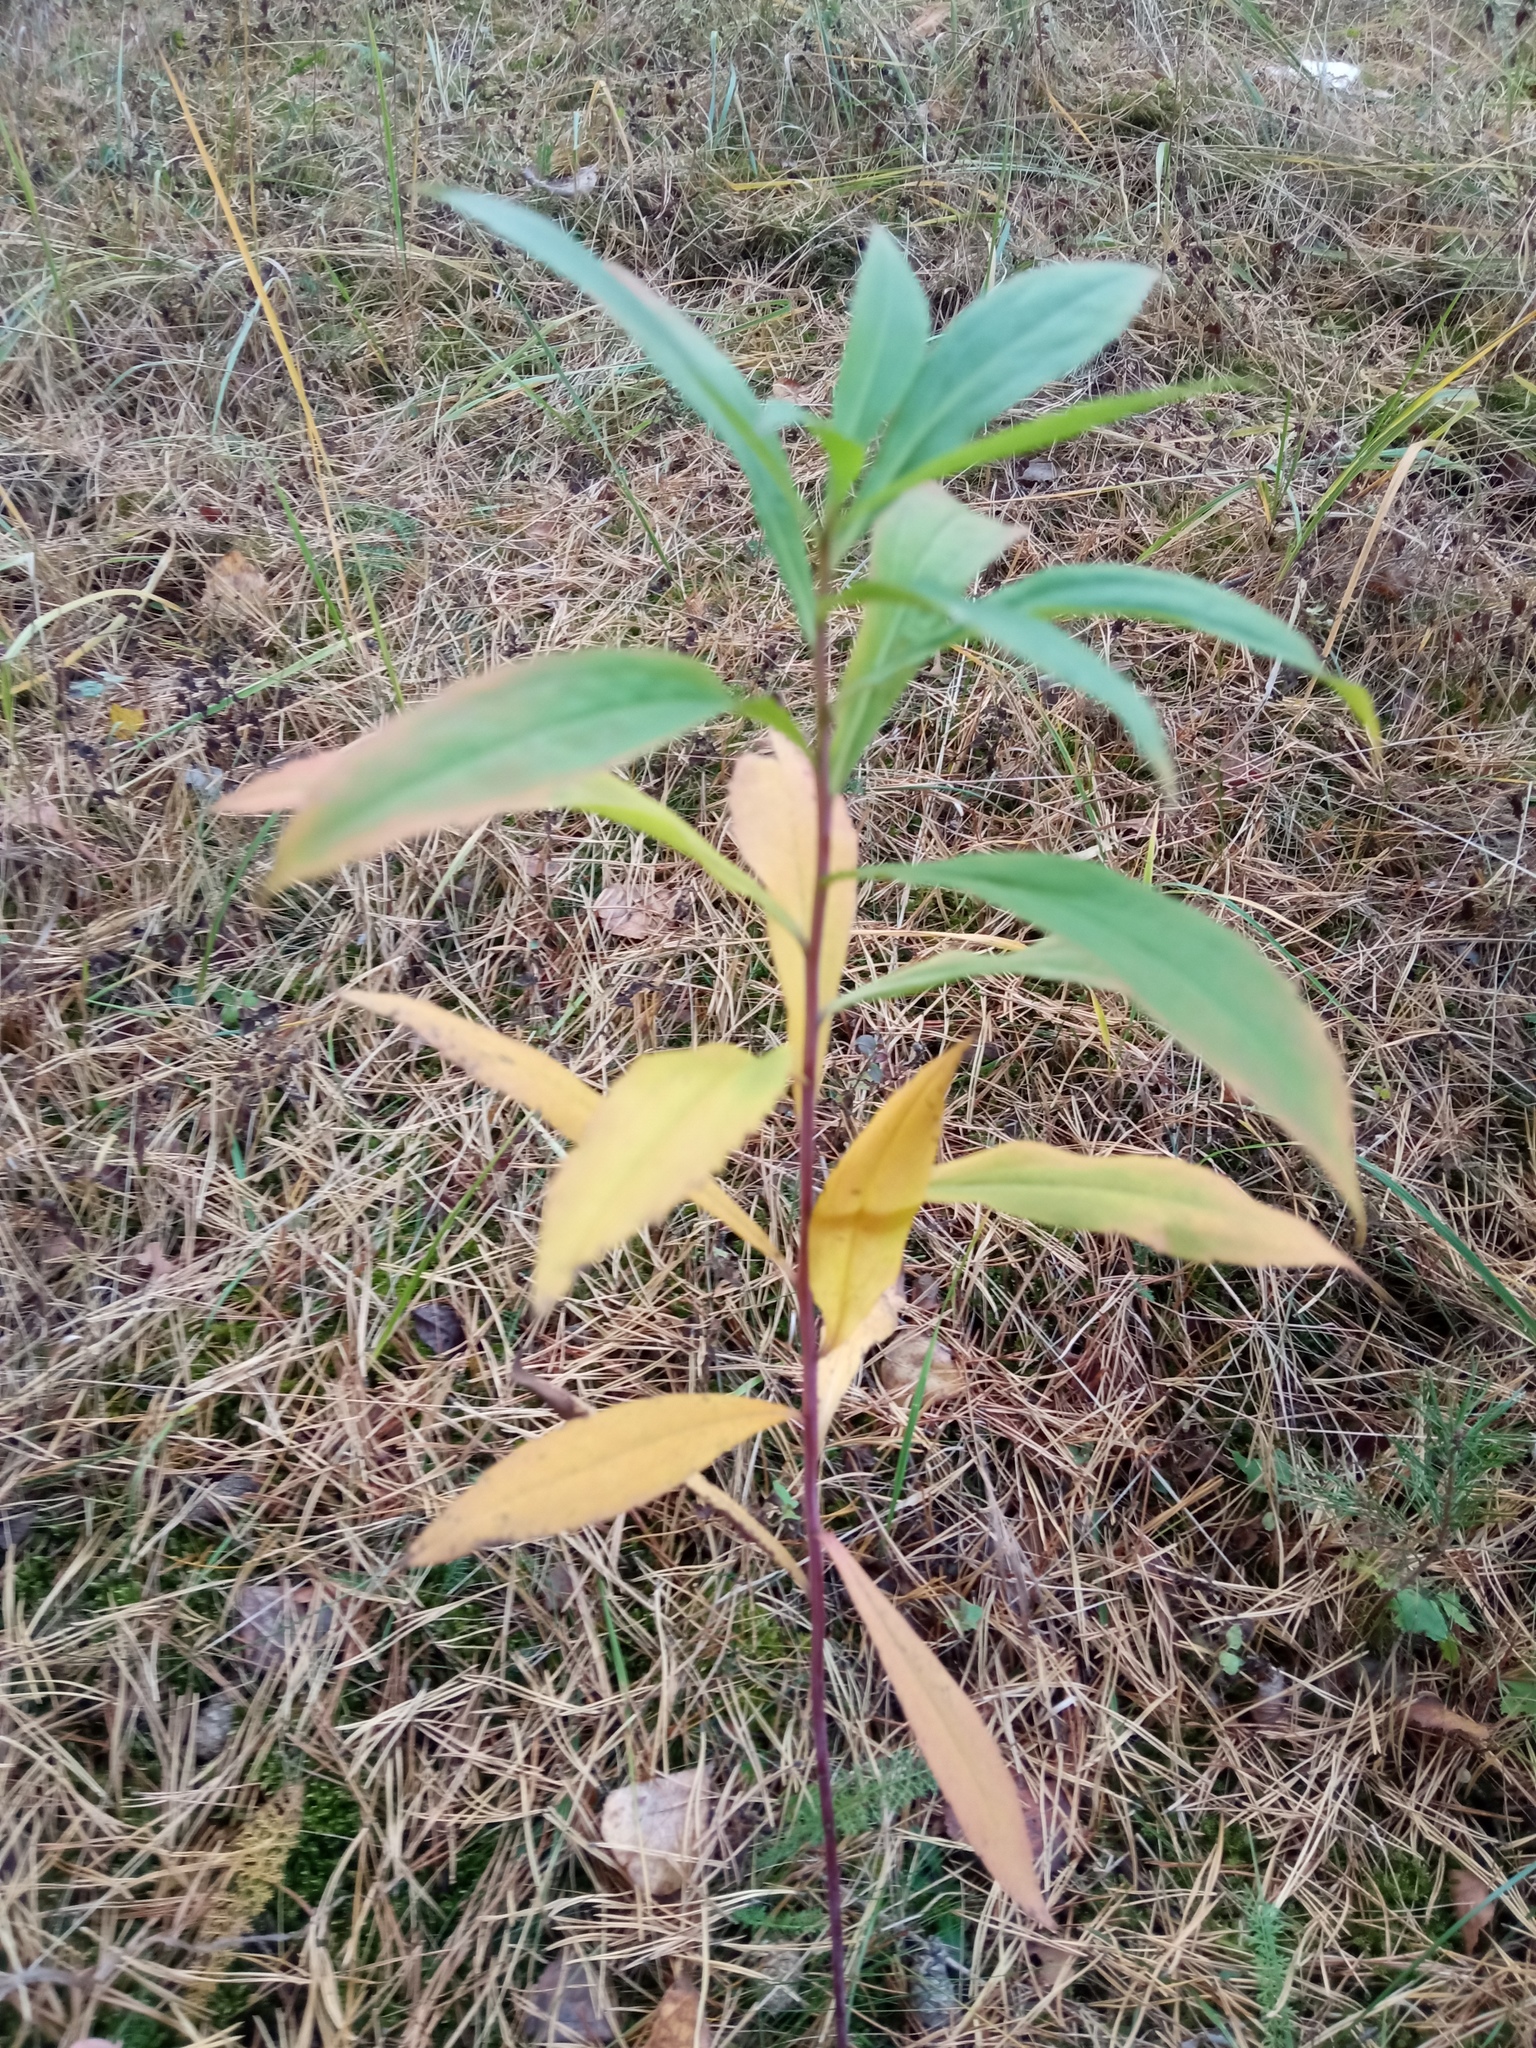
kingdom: Plantae
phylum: Tracheophyta
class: Magnoliopsida
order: Asterales
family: Asteraceae
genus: Solidago
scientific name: Solidago gigantea
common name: Giant goldenrod
